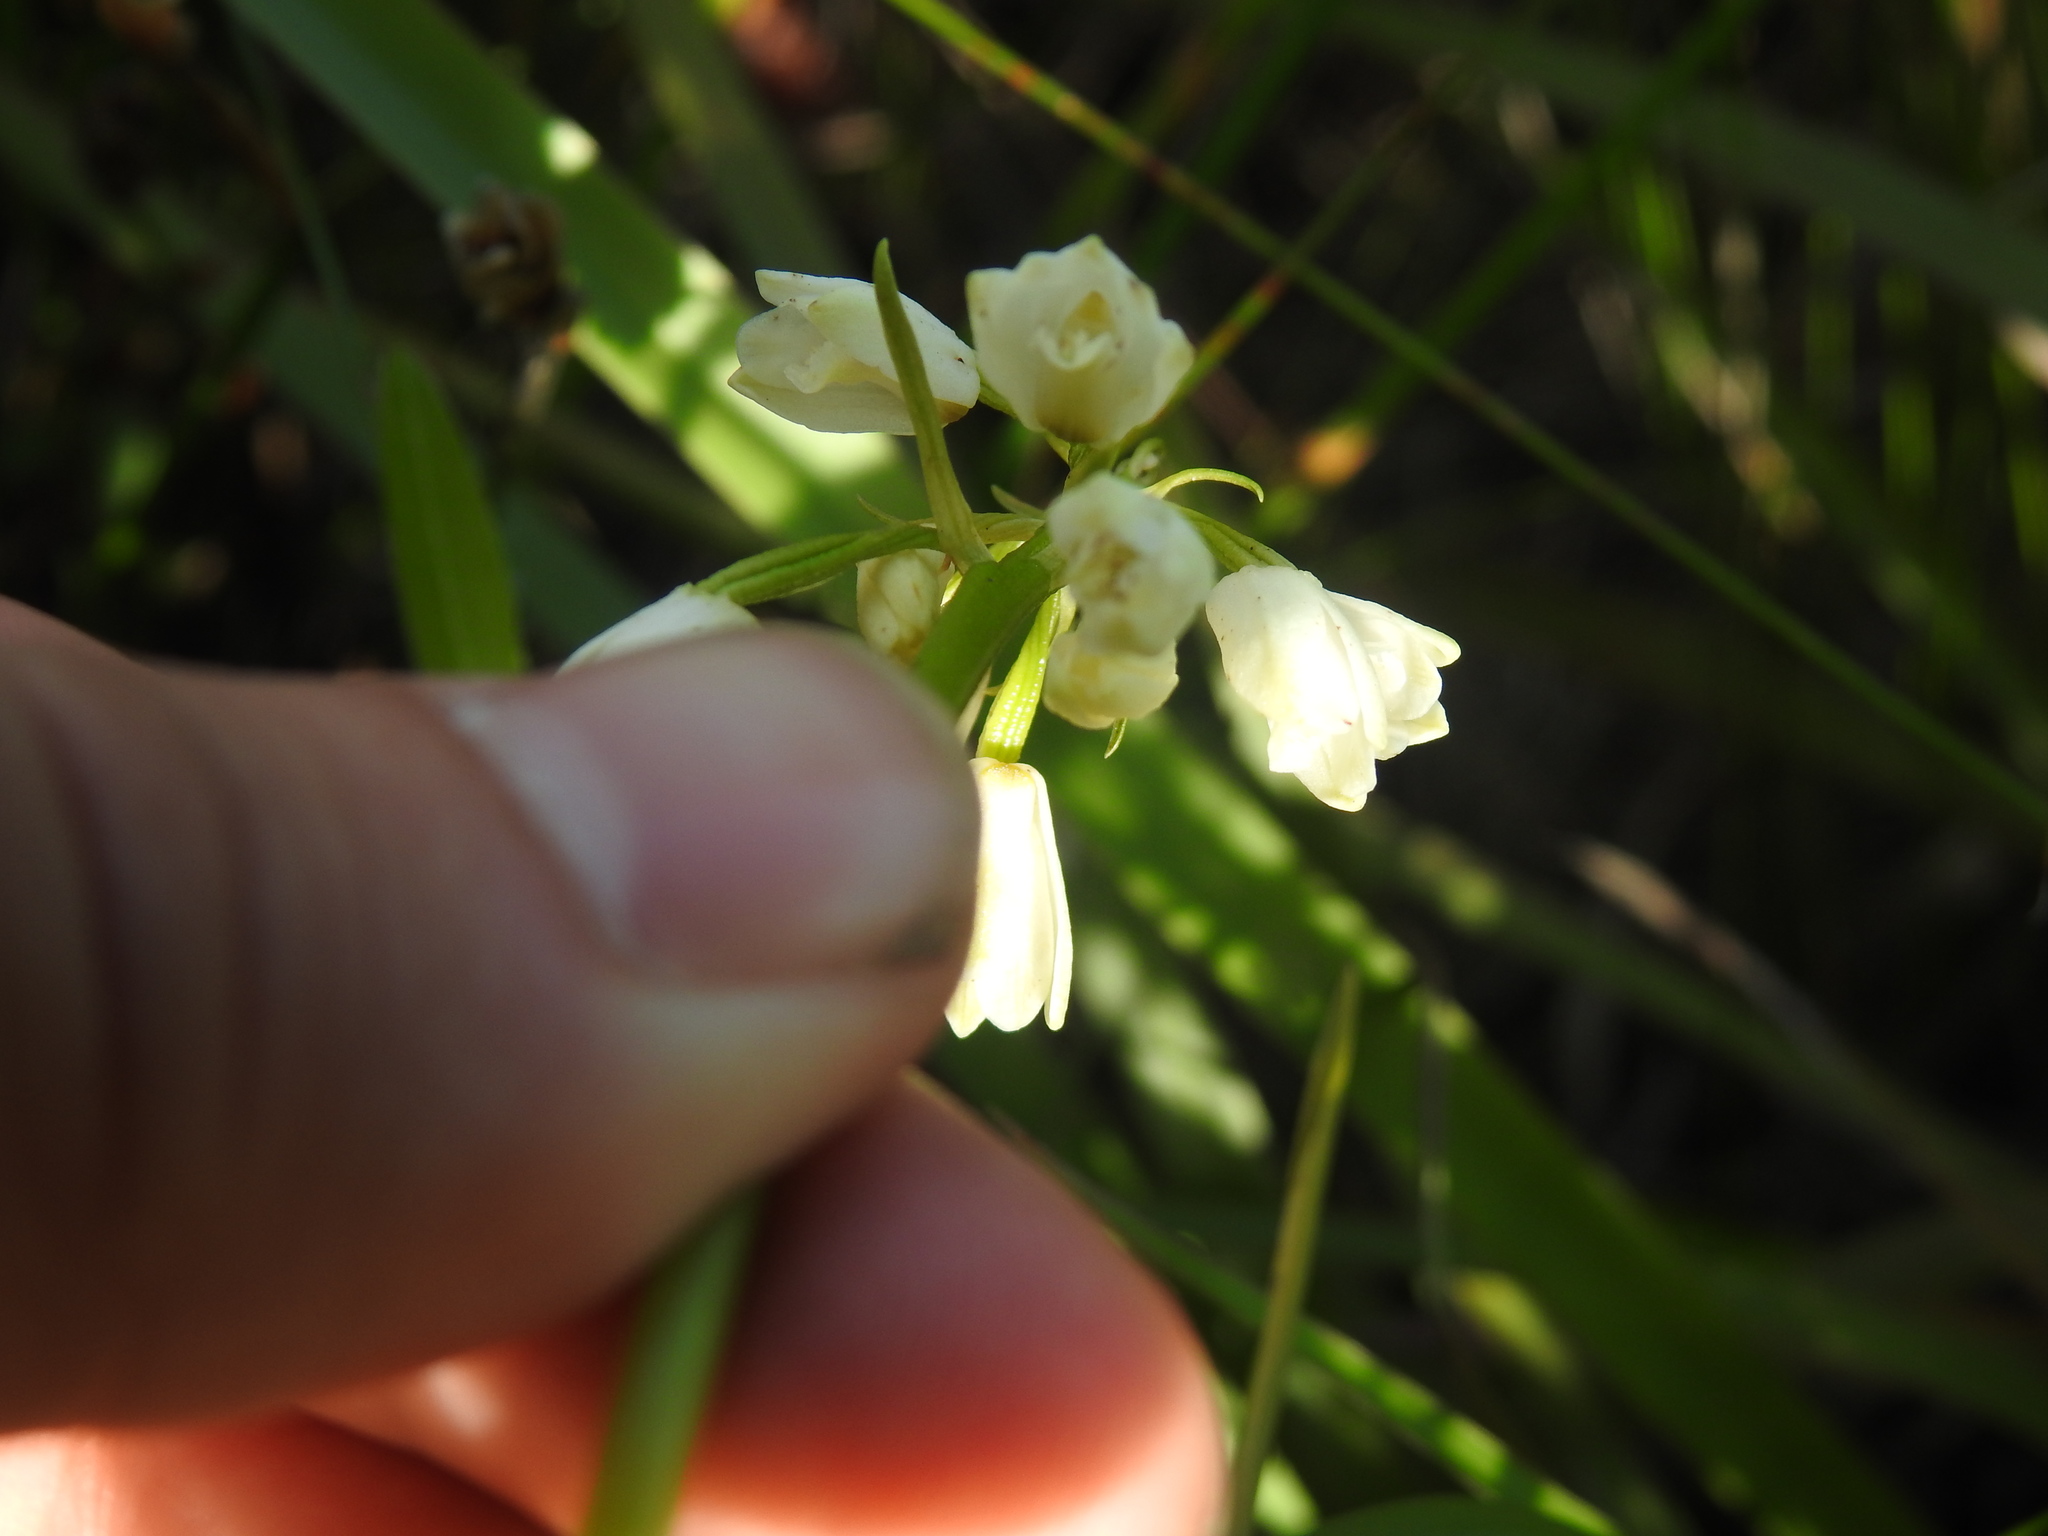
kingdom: Plantae
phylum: Tracheophyta
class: Liliopsida
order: Asparagales
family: Orchidaceae
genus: Eulophia
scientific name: Eulophia aculeata
